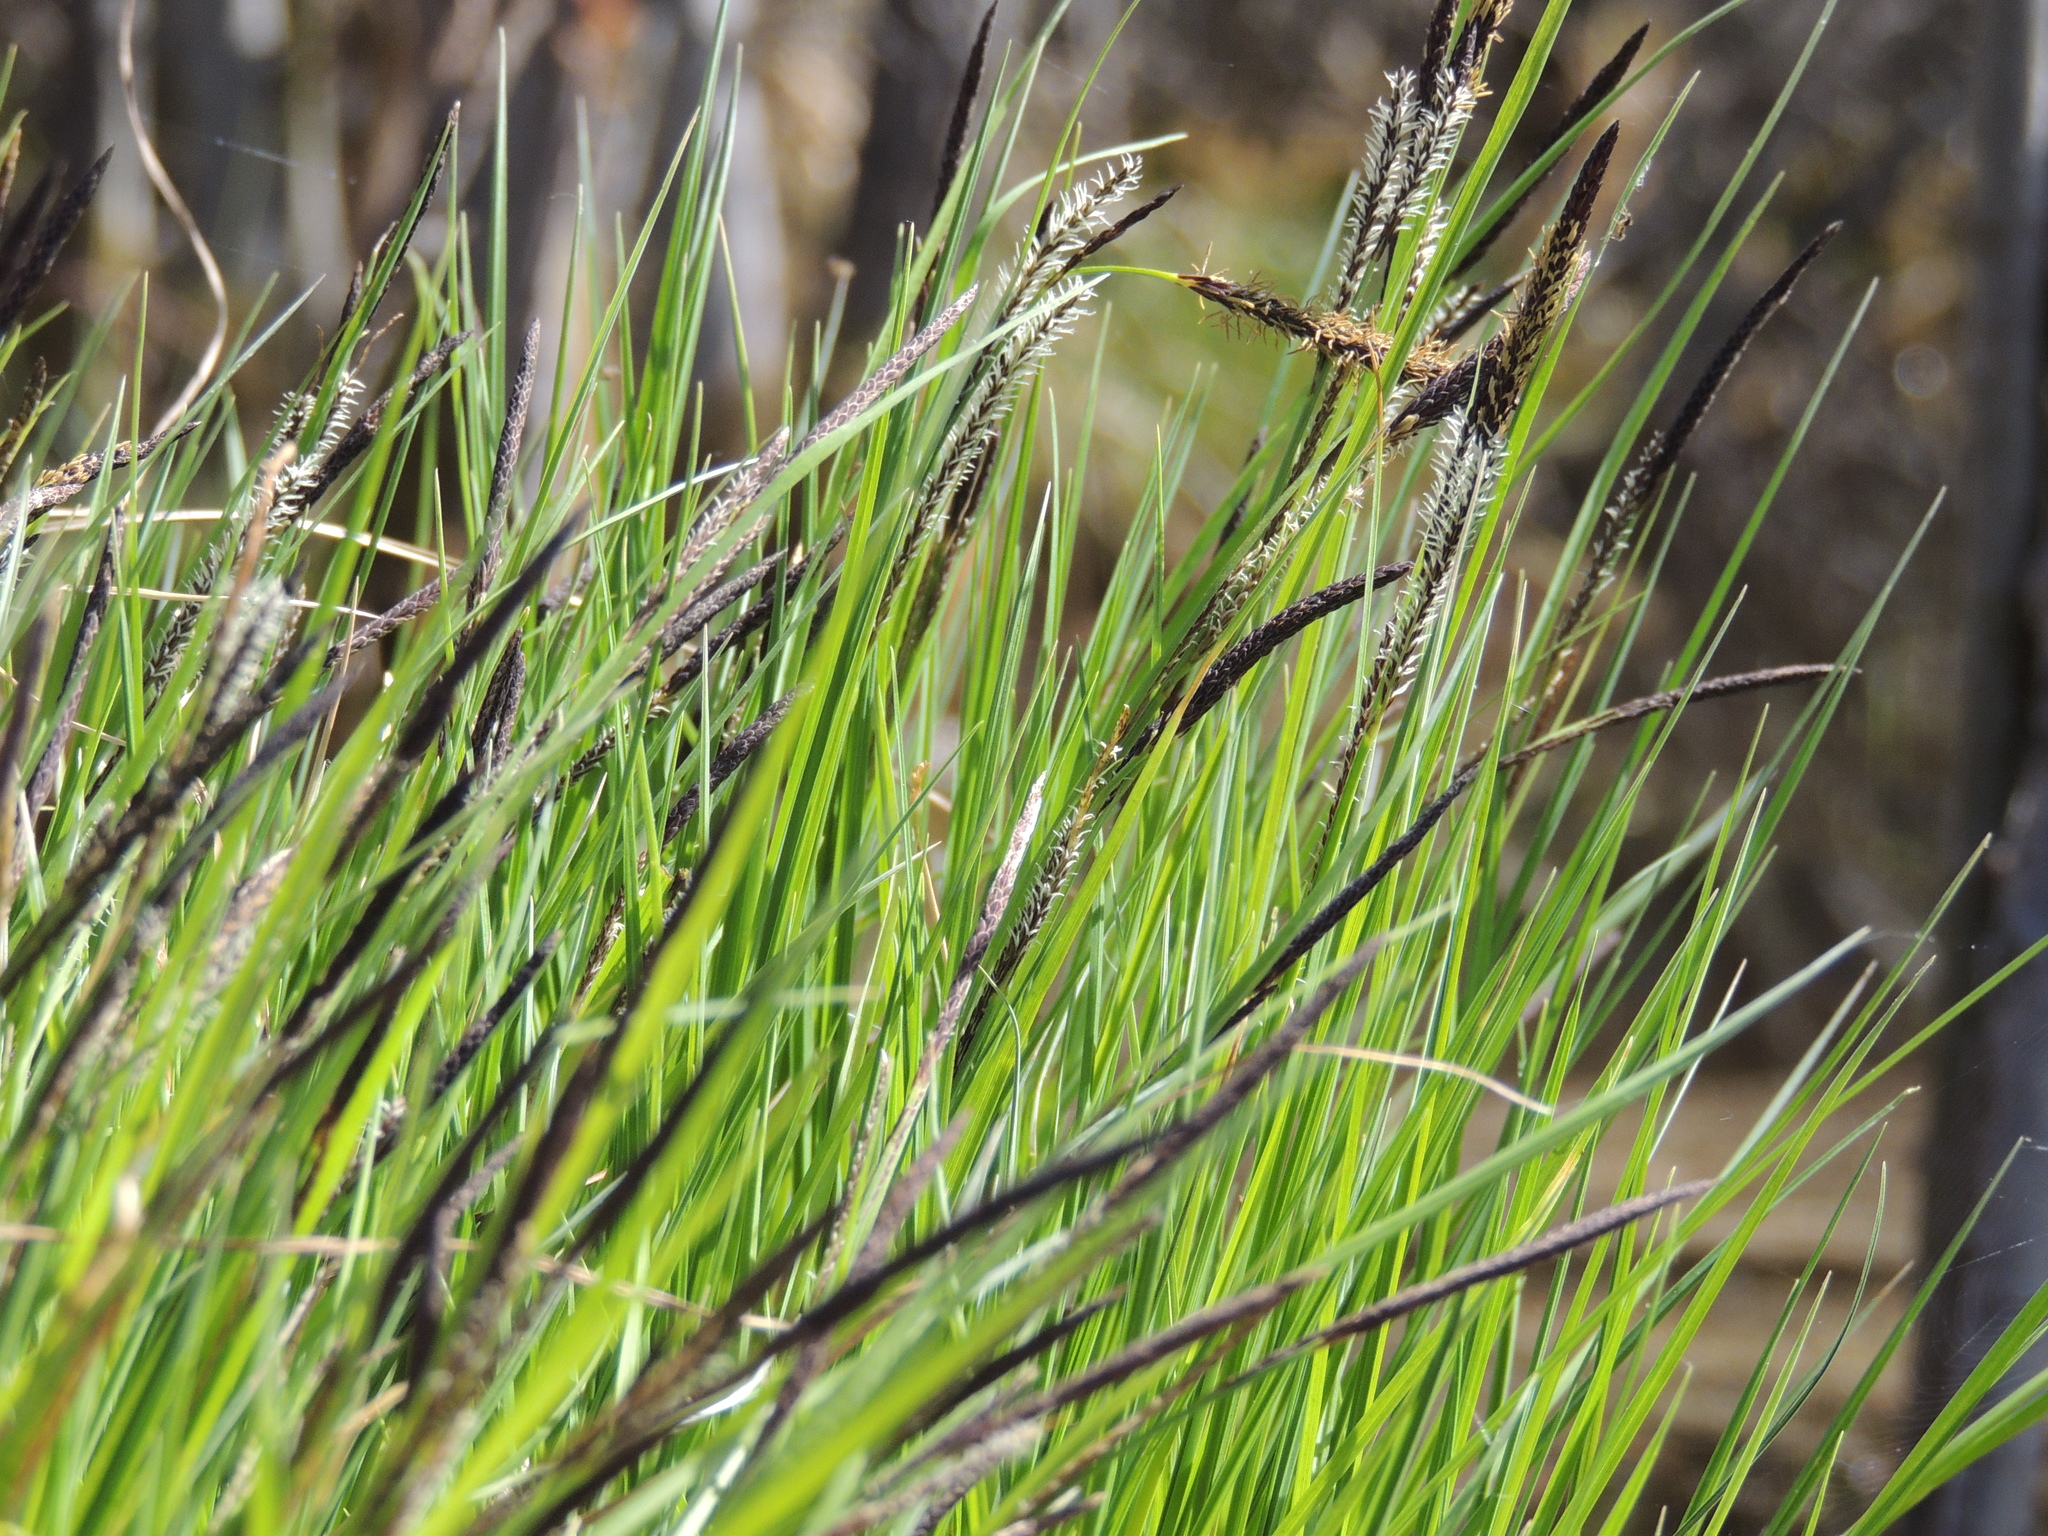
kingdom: Plantae
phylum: Tracheophyta
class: Liliopsida
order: Poales
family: Cyperaceae
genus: Carex
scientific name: Carex cespitosa
